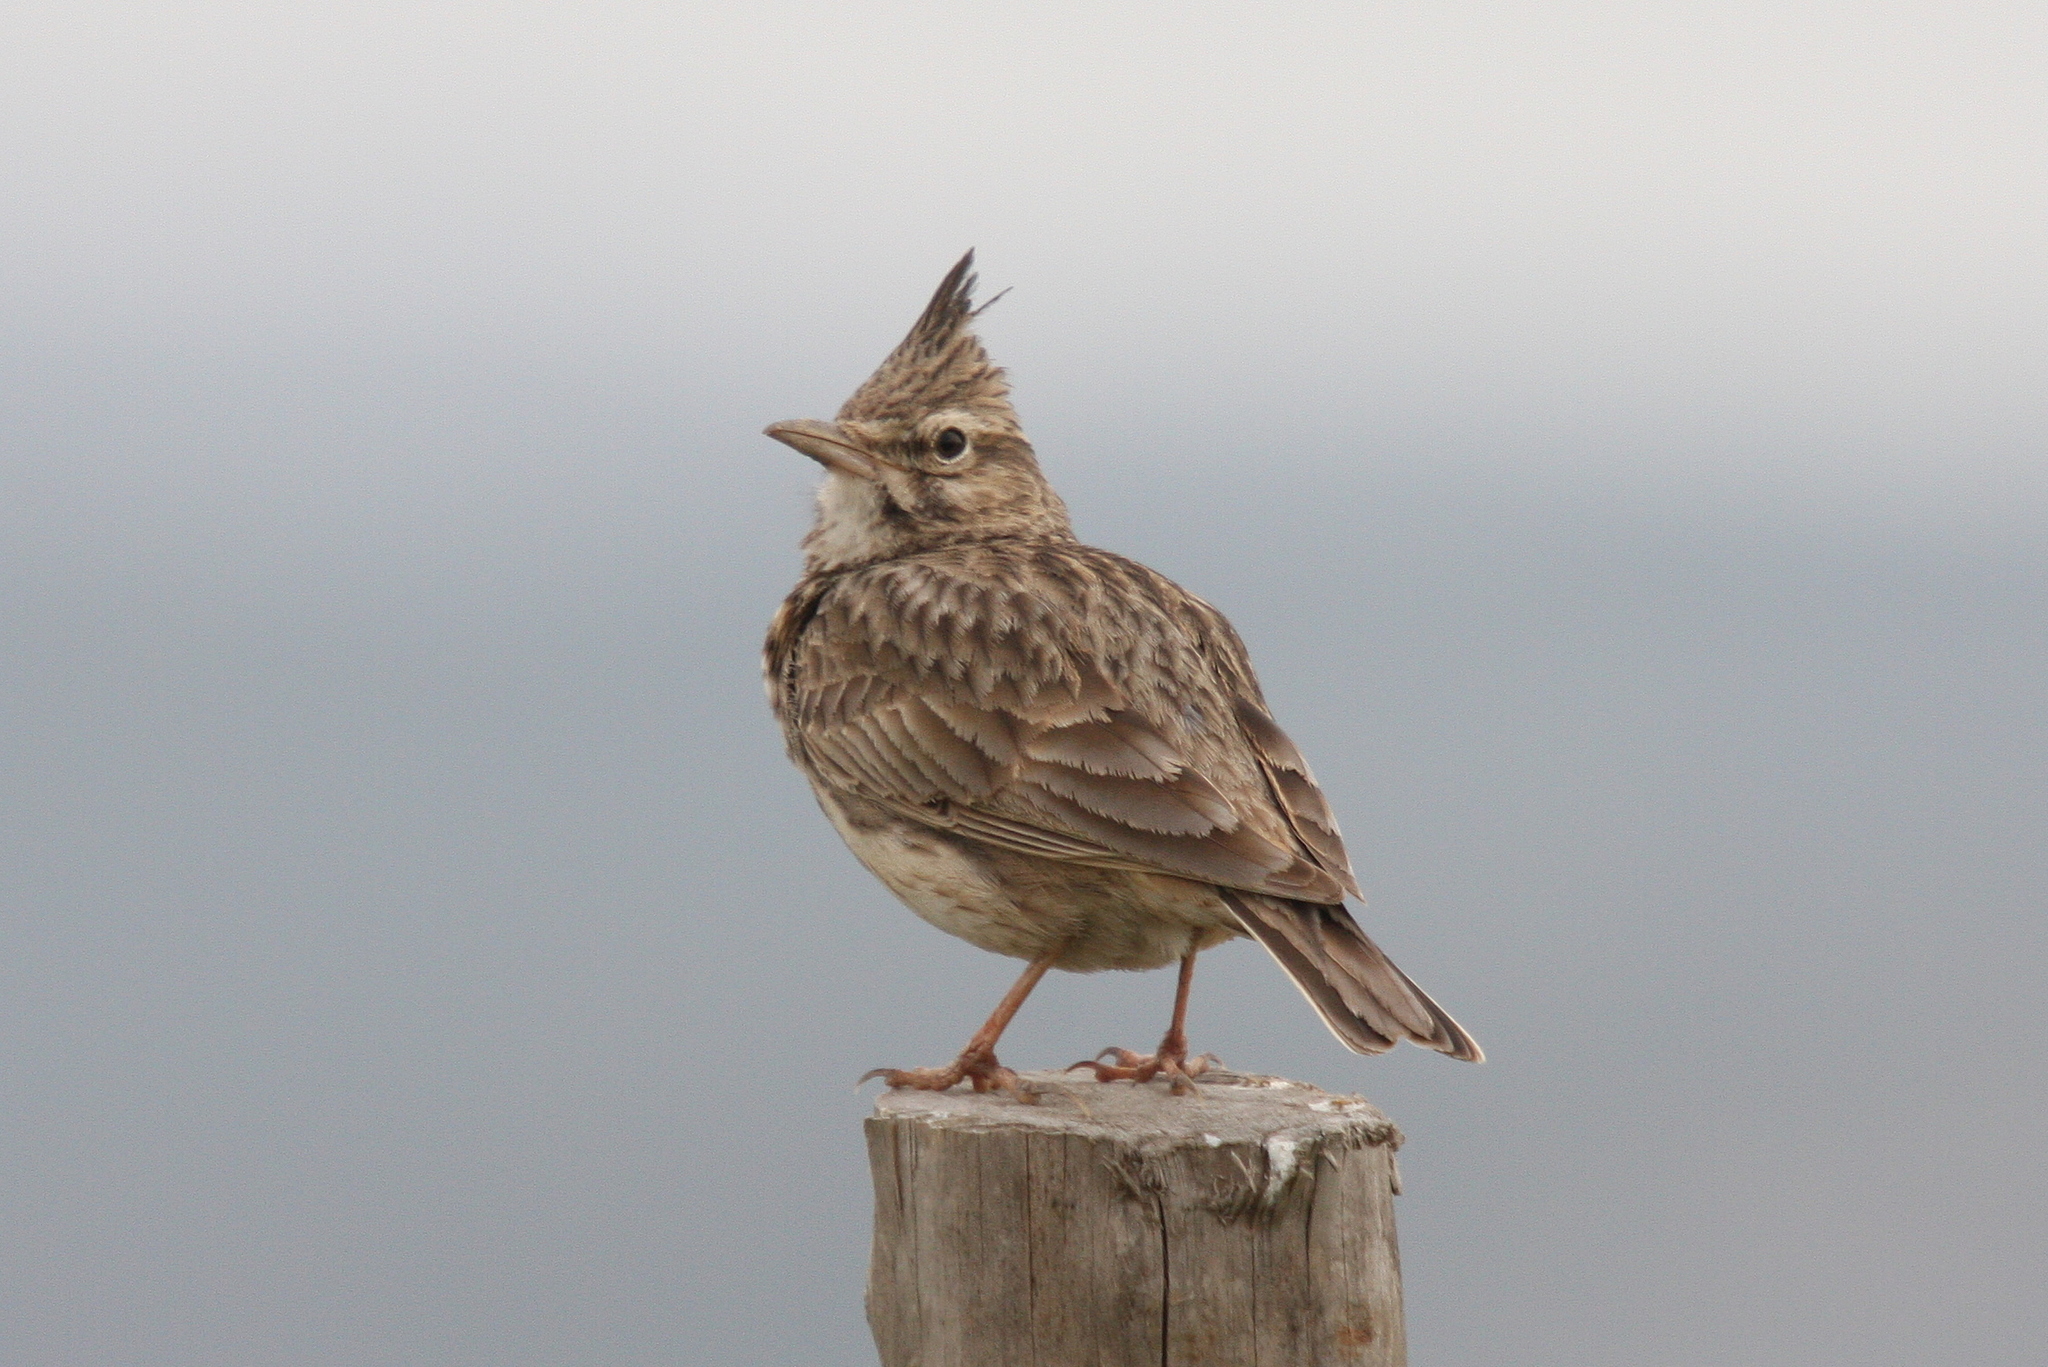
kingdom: Animalia
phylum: Chordata
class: Aves
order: Passeriformes
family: Alaudidae
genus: Galerida
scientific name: Galerida cristata
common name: Crested lark
